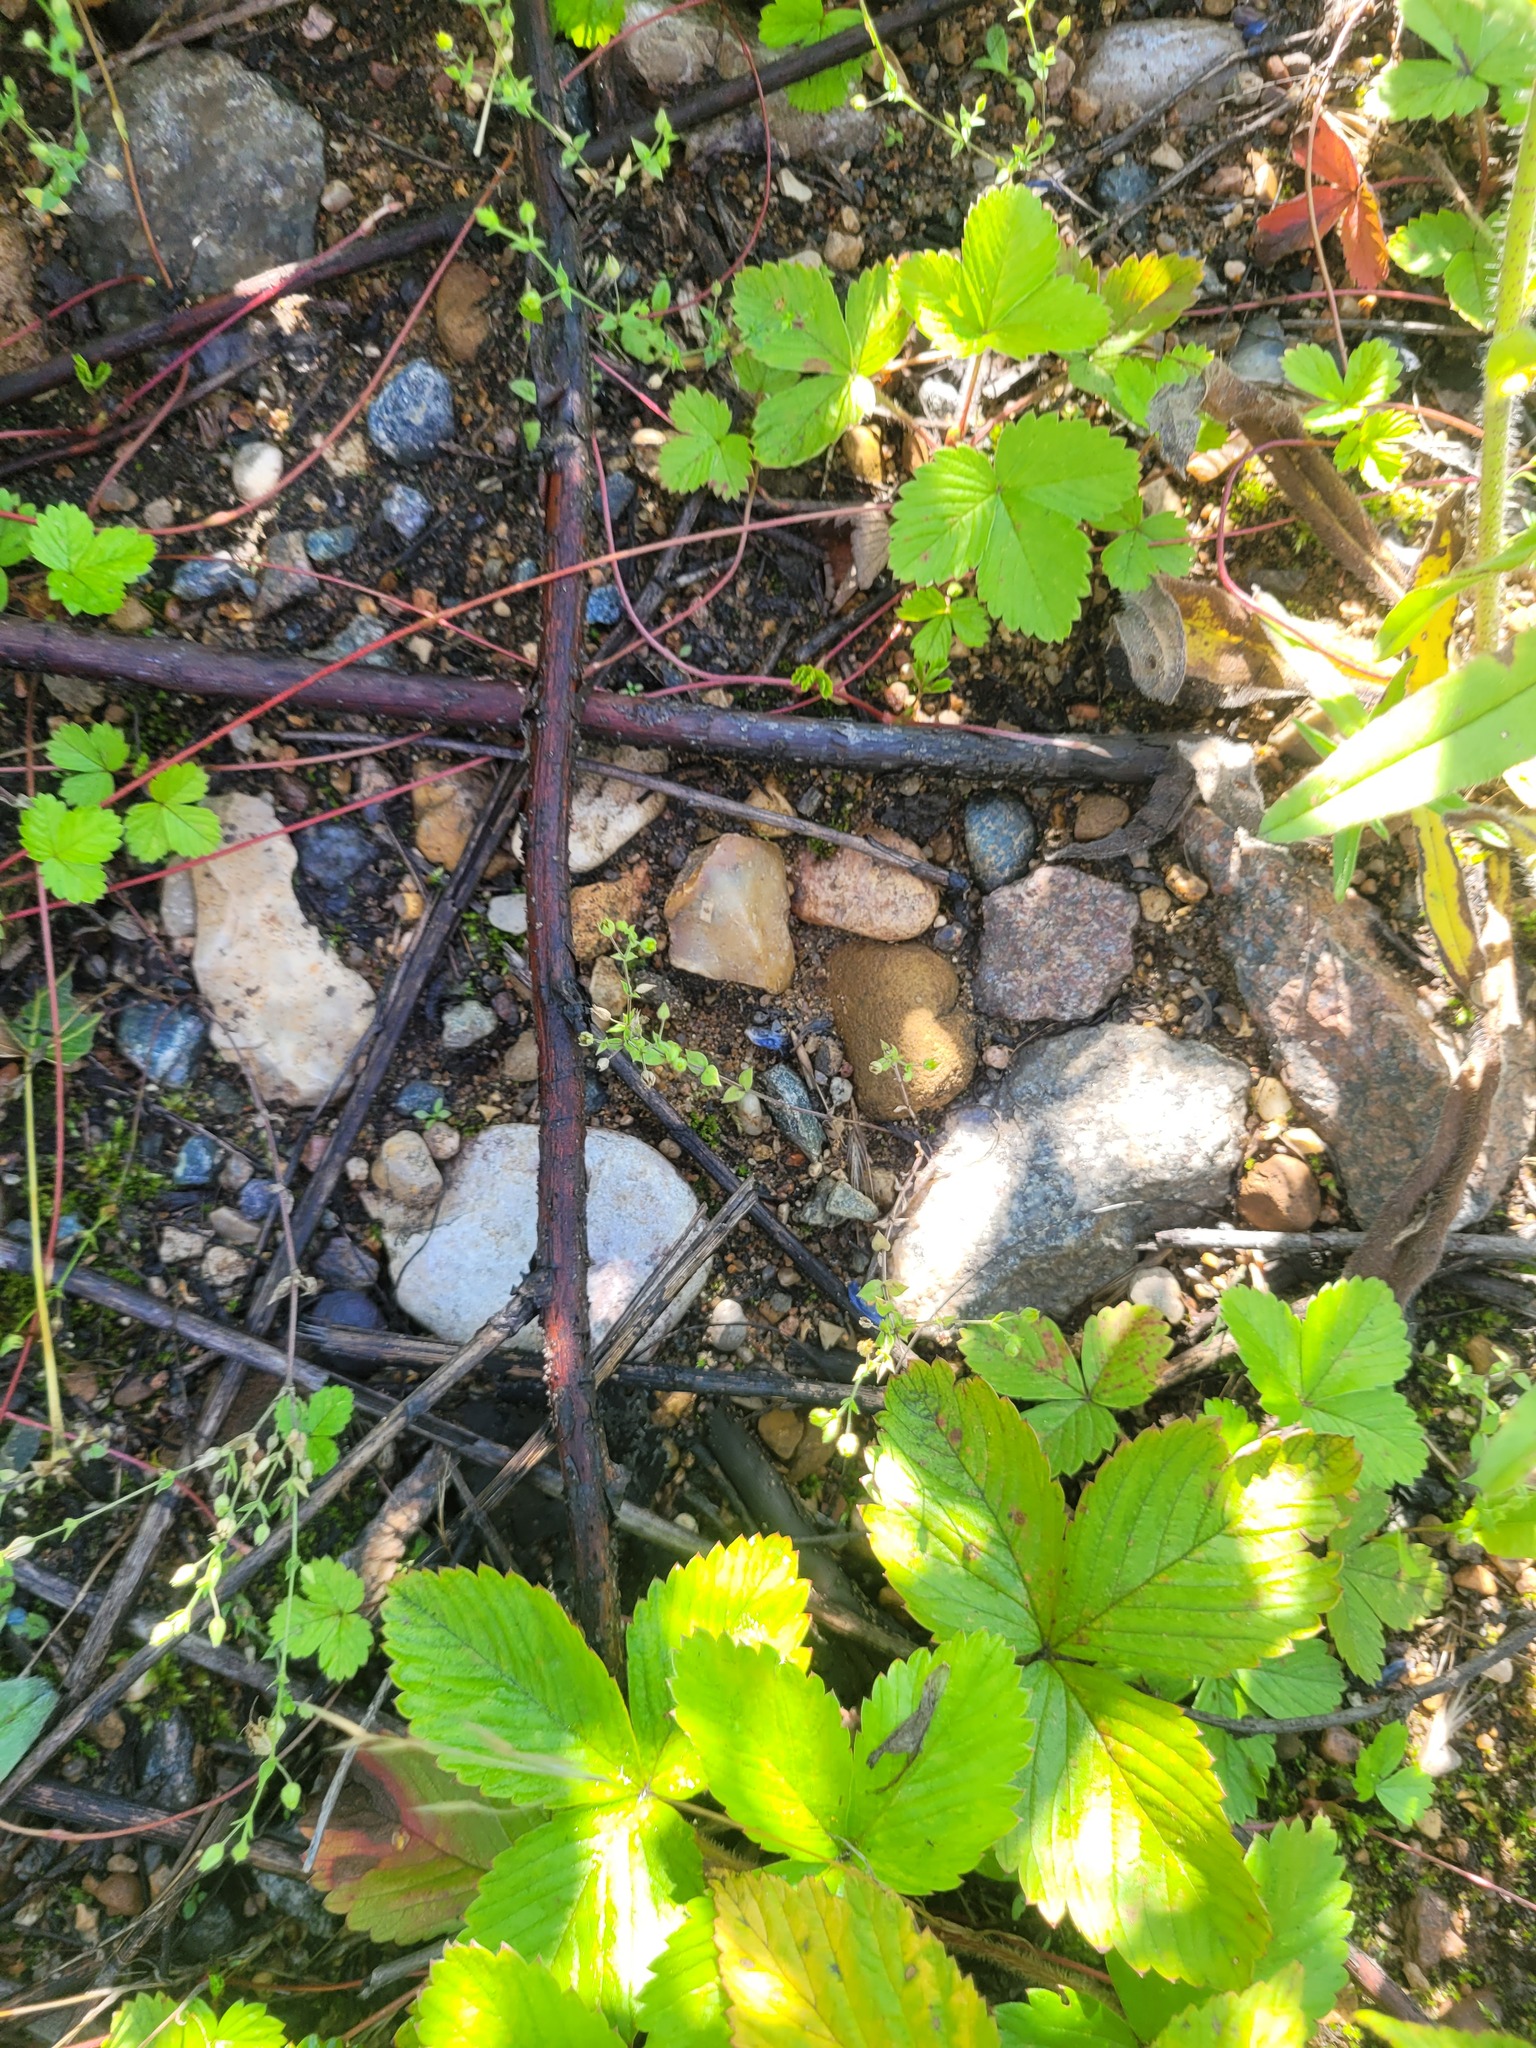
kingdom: Plantae
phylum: Tracheophyta
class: Magnoliopsida
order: Caryophyllales
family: Caryophyllaceae
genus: Arenaria
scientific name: Arenaria serpyllifolia
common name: Thyme-leaved sandwort
